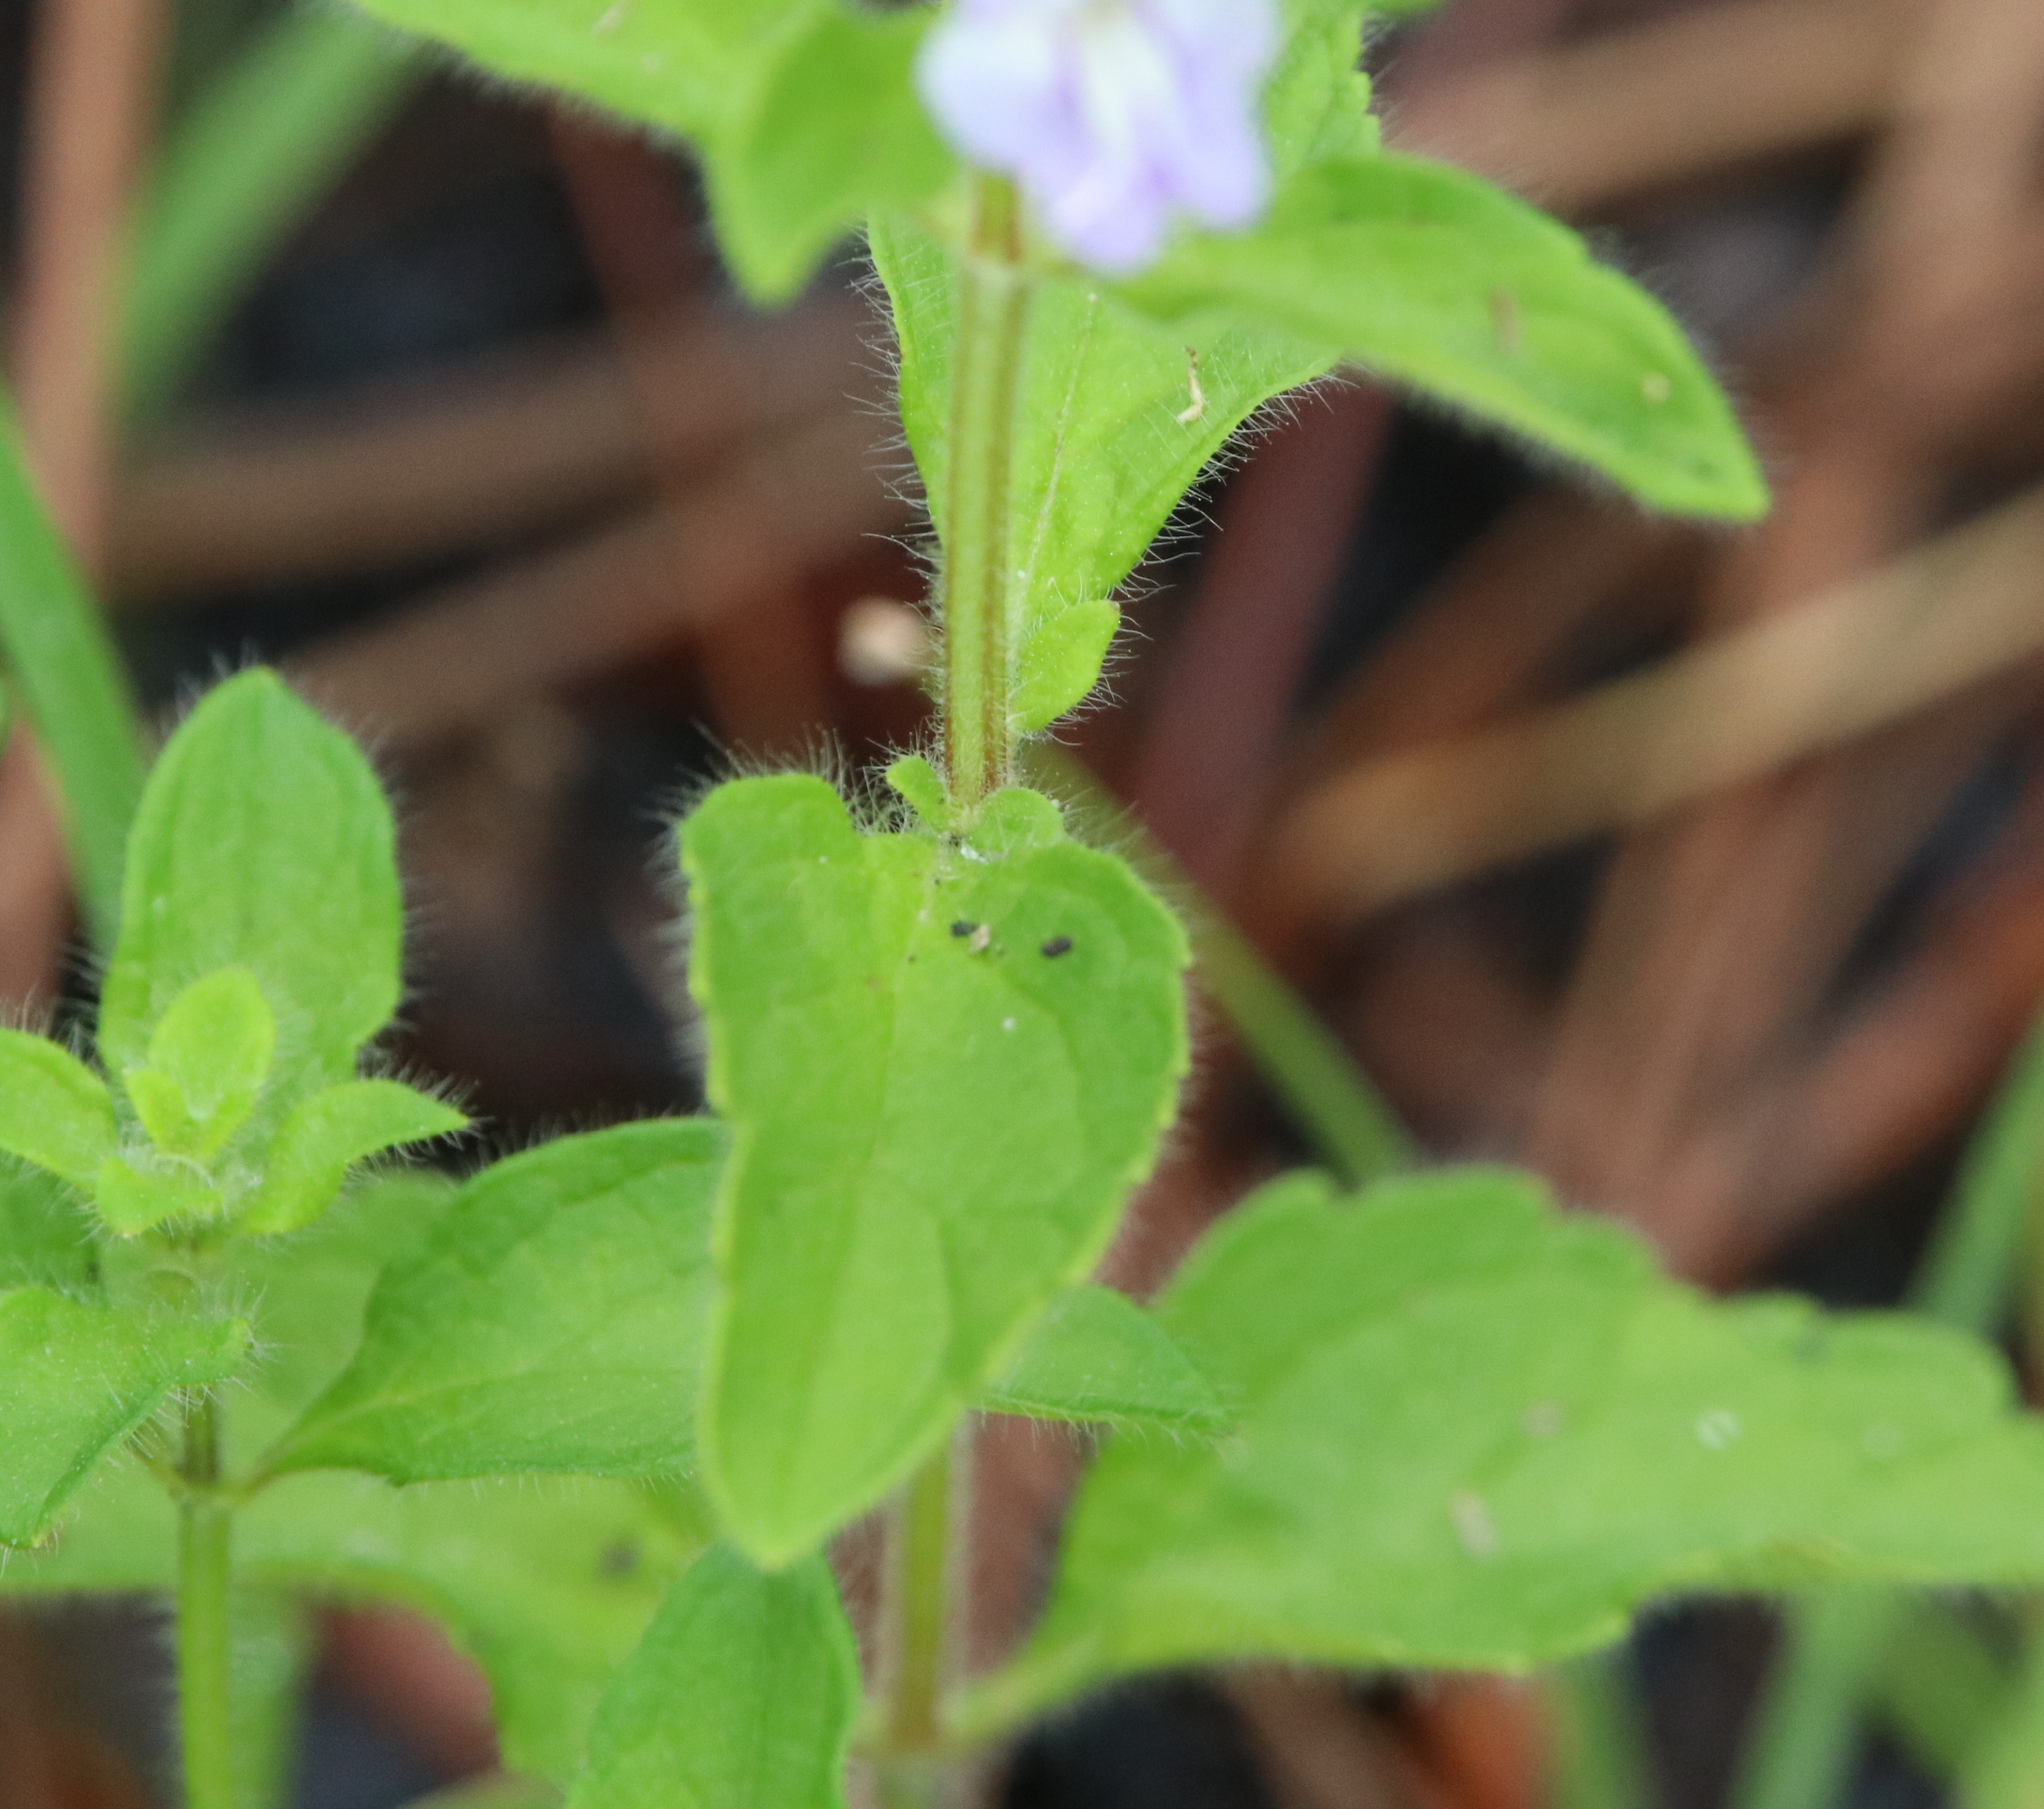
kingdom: Plantae
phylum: Tracheophyta
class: Magnoliopsida
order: Lamiales
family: Lamiaceae
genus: Scutellaria
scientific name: Scutellaria elliptica
